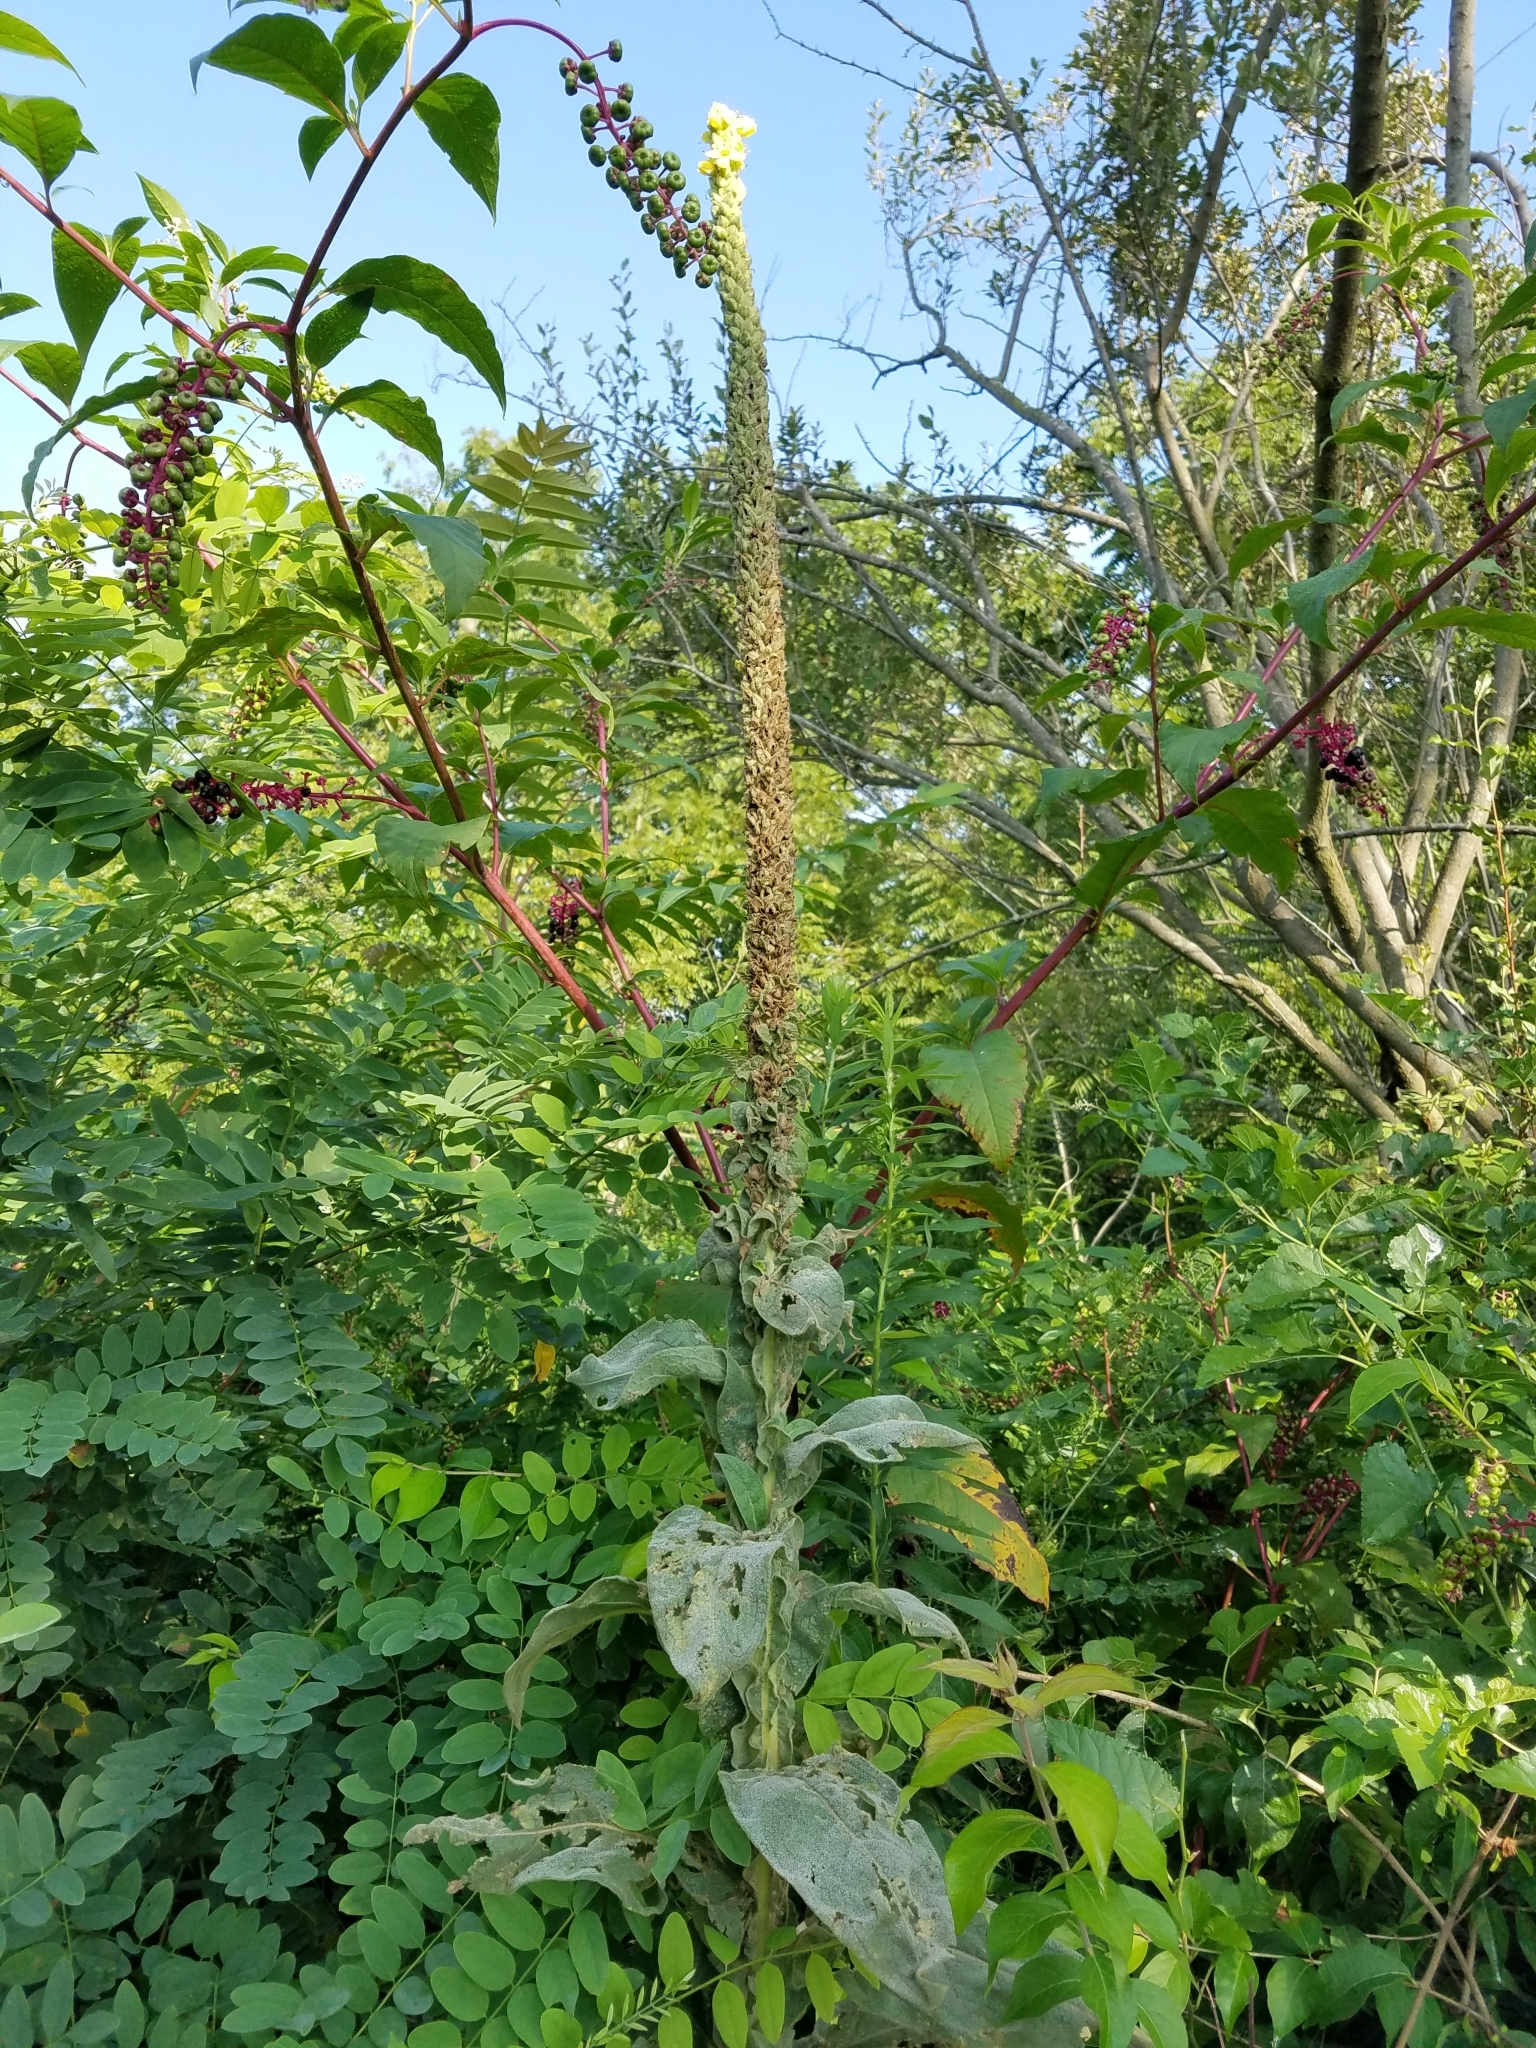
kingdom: Plantae
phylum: Tracheophyta
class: Magnoliopsida
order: Lamiales
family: Scrophulariaceae
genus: Verbascum
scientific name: Verbascum thapsus
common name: Common mullein
